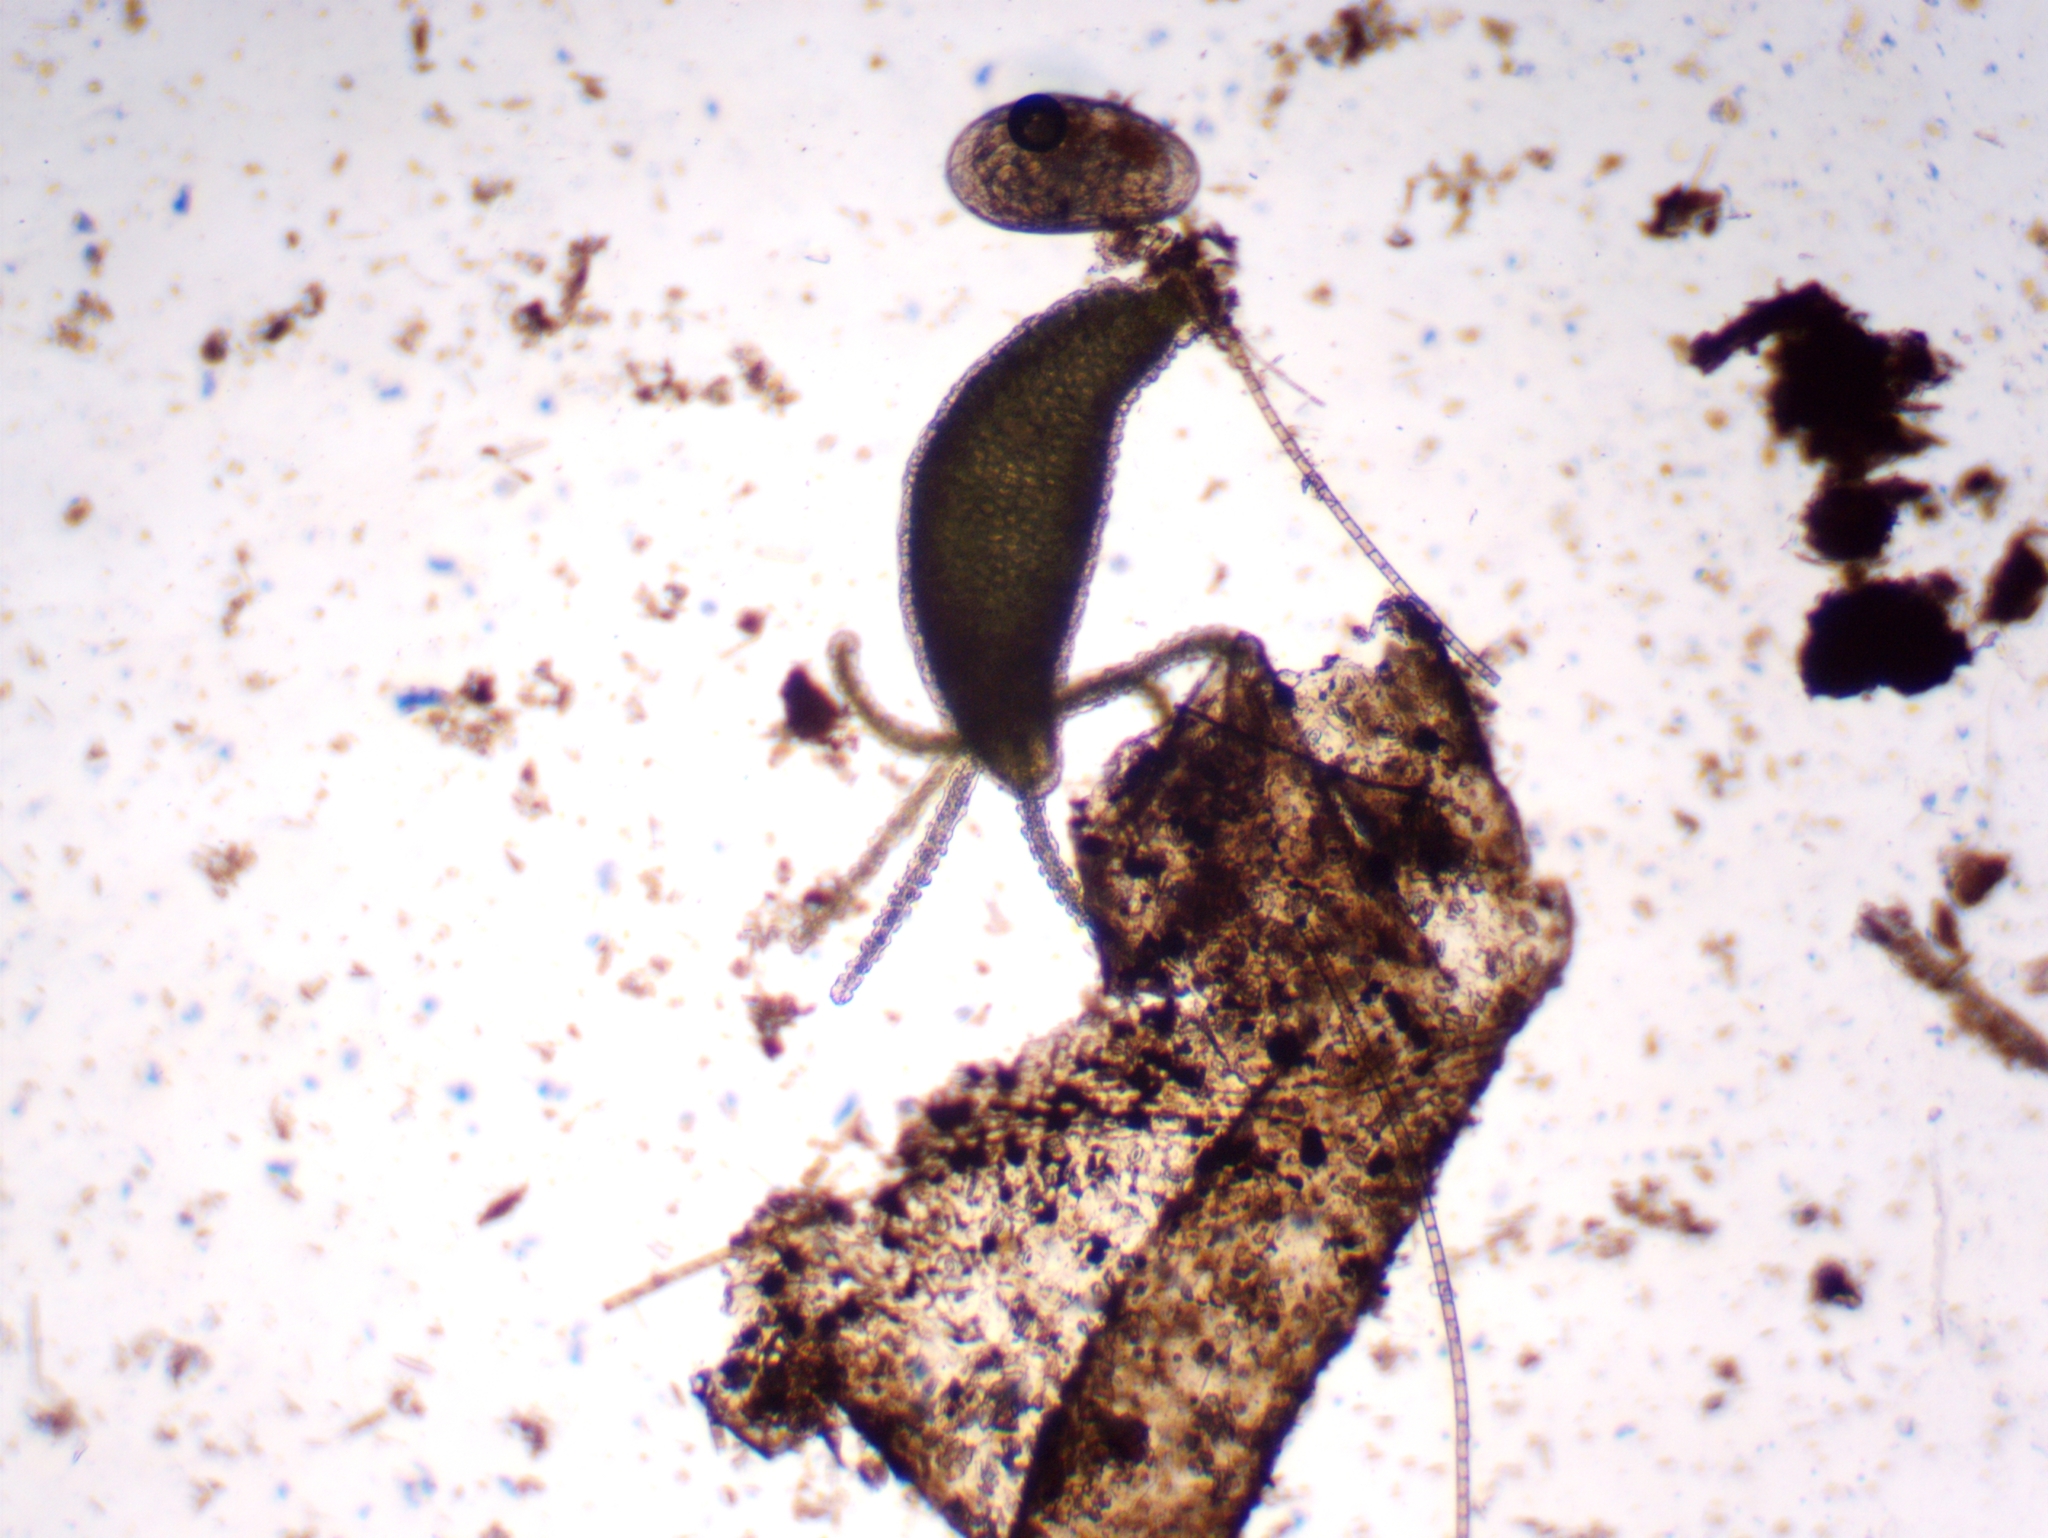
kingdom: Animalia
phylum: Cnidaria
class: Hydrozoa
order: Anthoathecata
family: Hydridae
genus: Hydra
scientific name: Hydra viridissima
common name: Green hydra
